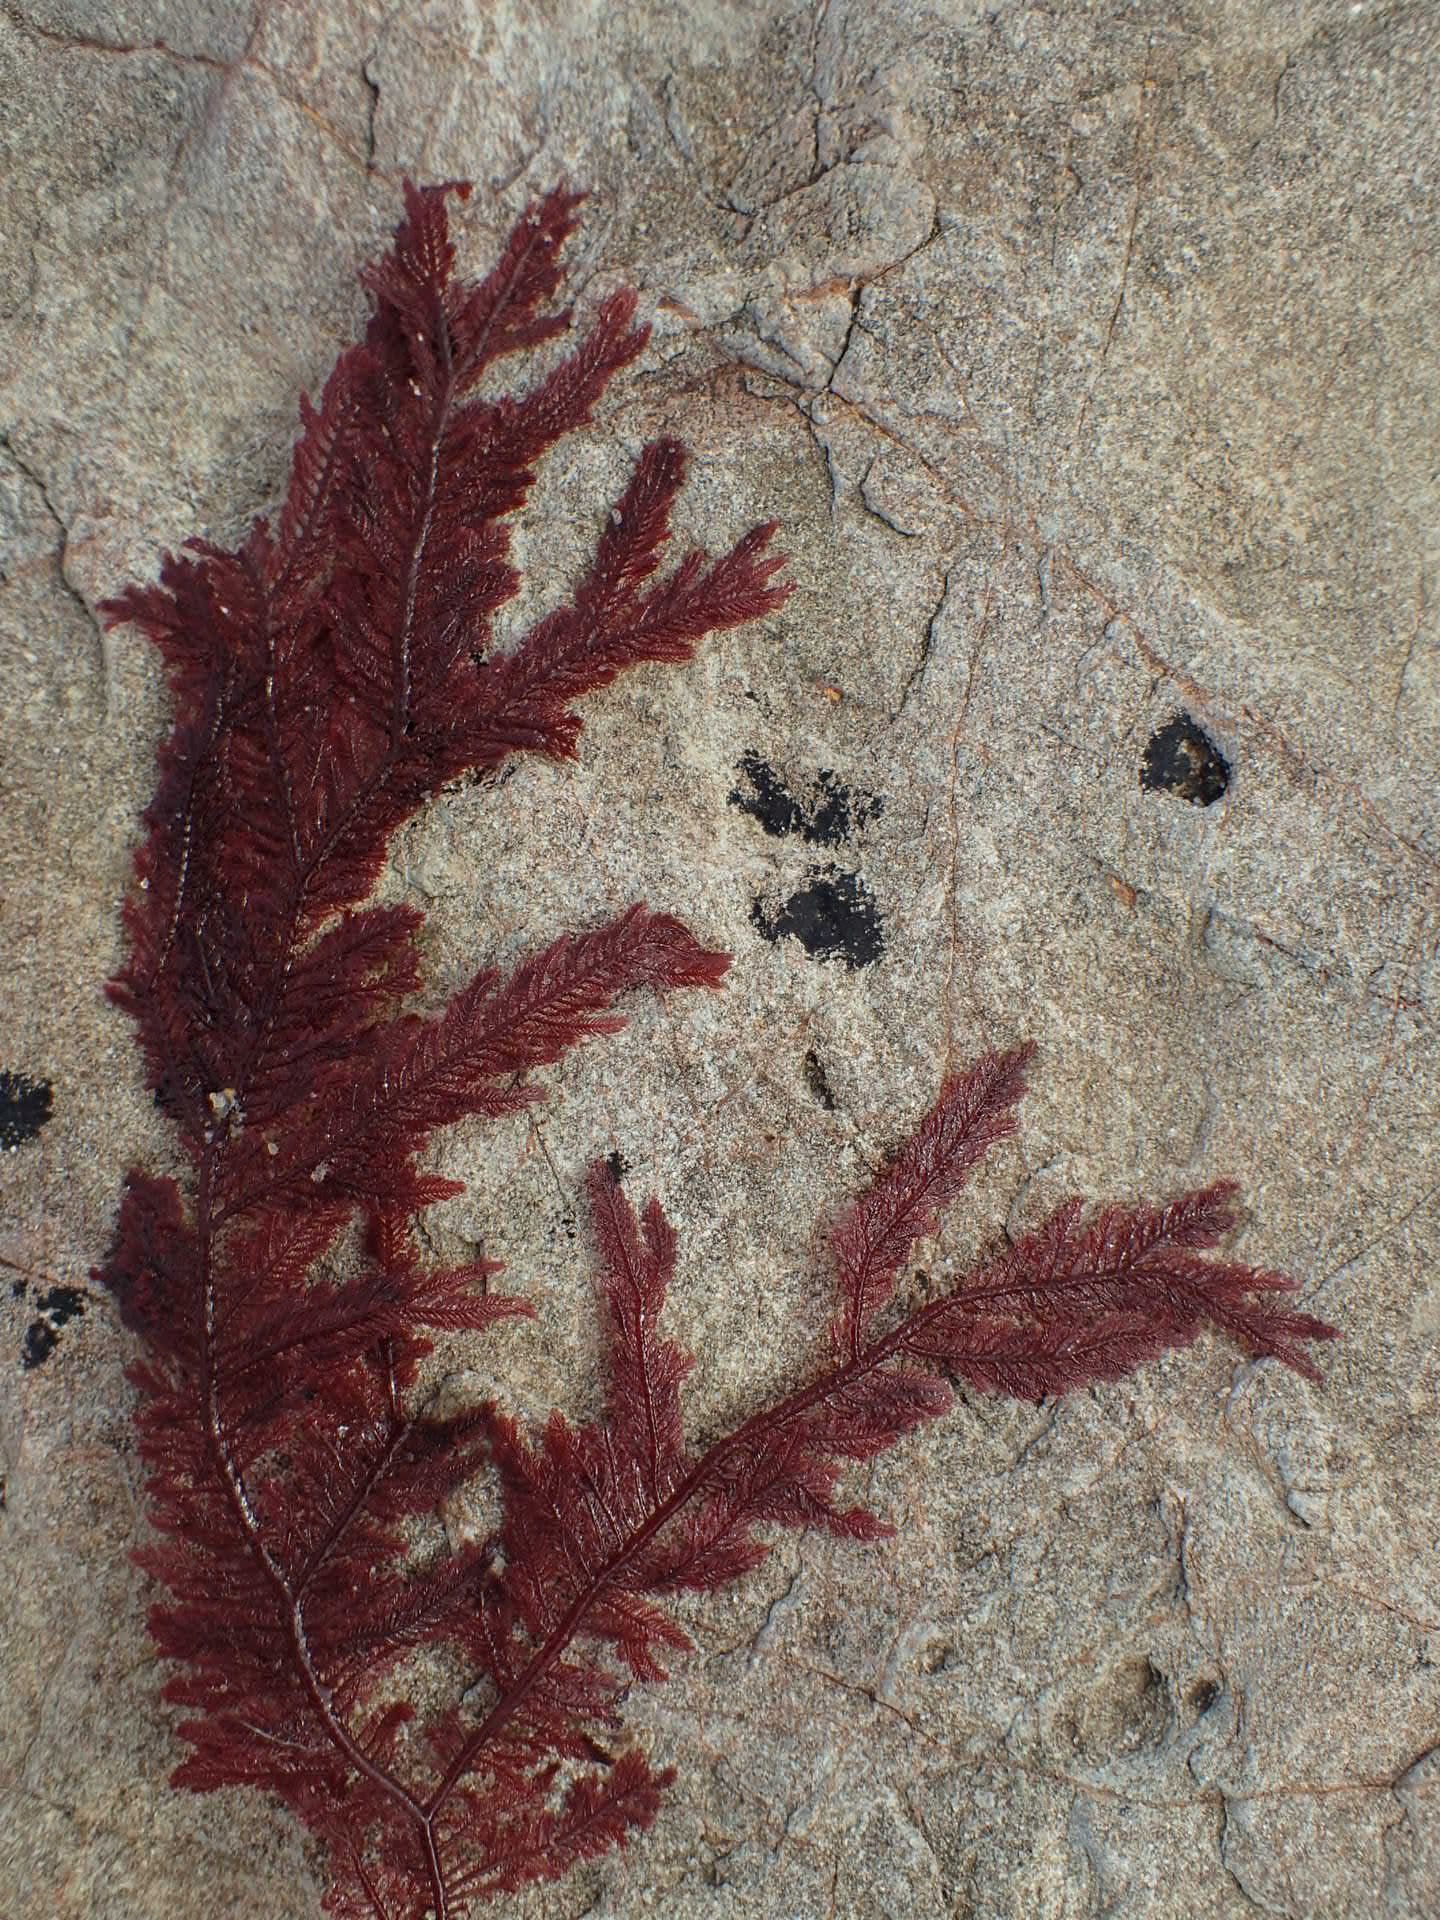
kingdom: Plantae
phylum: Rhodophyta
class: Florideophyceae
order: Ceramiales
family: Callithamniaceae
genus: Euptilota
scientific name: Euptilota formosissima
